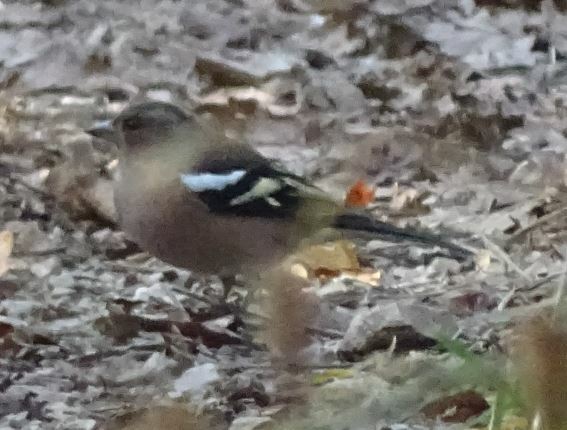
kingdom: Animalia
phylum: Chordata
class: Aves
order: Passeriformes
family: Fringillidae
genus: Fringilla
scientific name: Fringilla coelebs
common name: Common chaffinch
